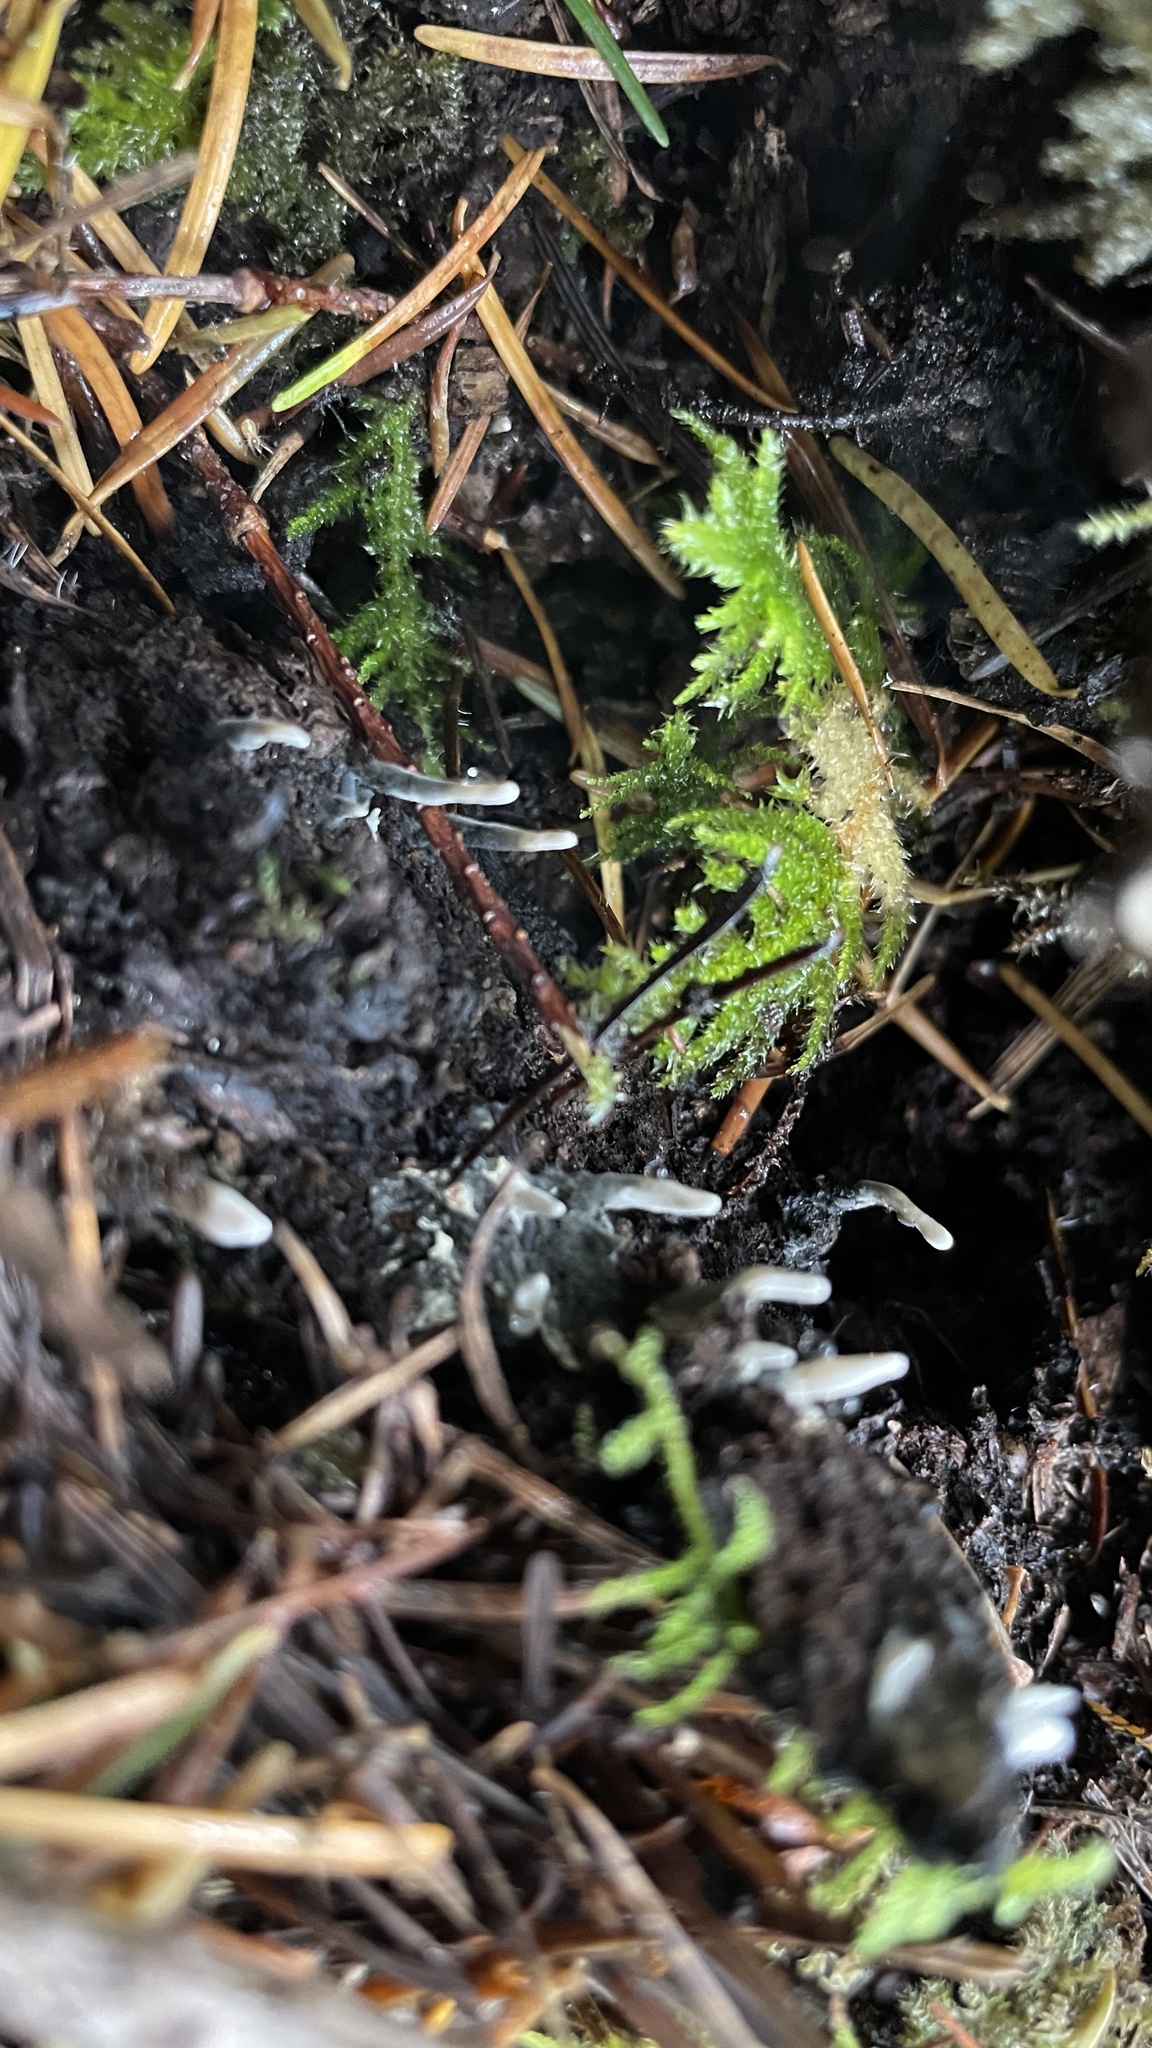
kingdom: Fungi
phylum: Ascomycota
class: Sordariomycetes
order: Xylariales
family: Xylariaceae
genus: Xylaria
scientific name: Xylaria hypoxylon
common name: Candle-snuff fungus
